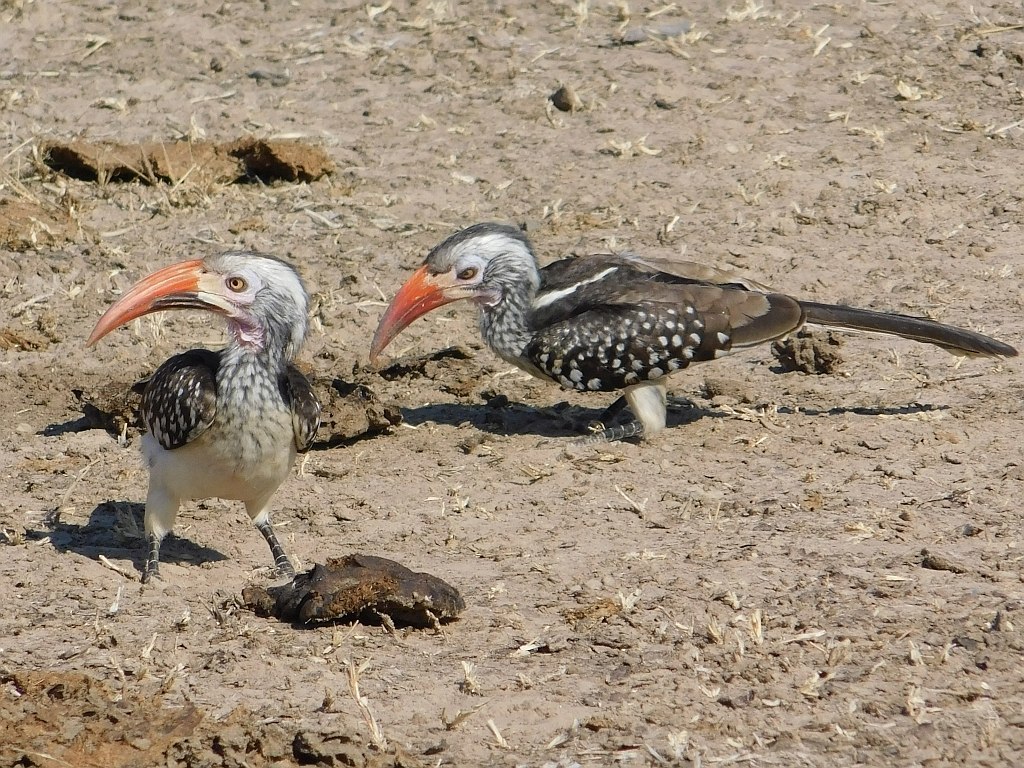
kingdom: Animalia
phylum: Chordata
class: Aves
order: Bucerotiformes
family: Bucerotidae
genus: Tockus
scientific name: Tockus rufirostris
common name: Southern red-billed hornbill
